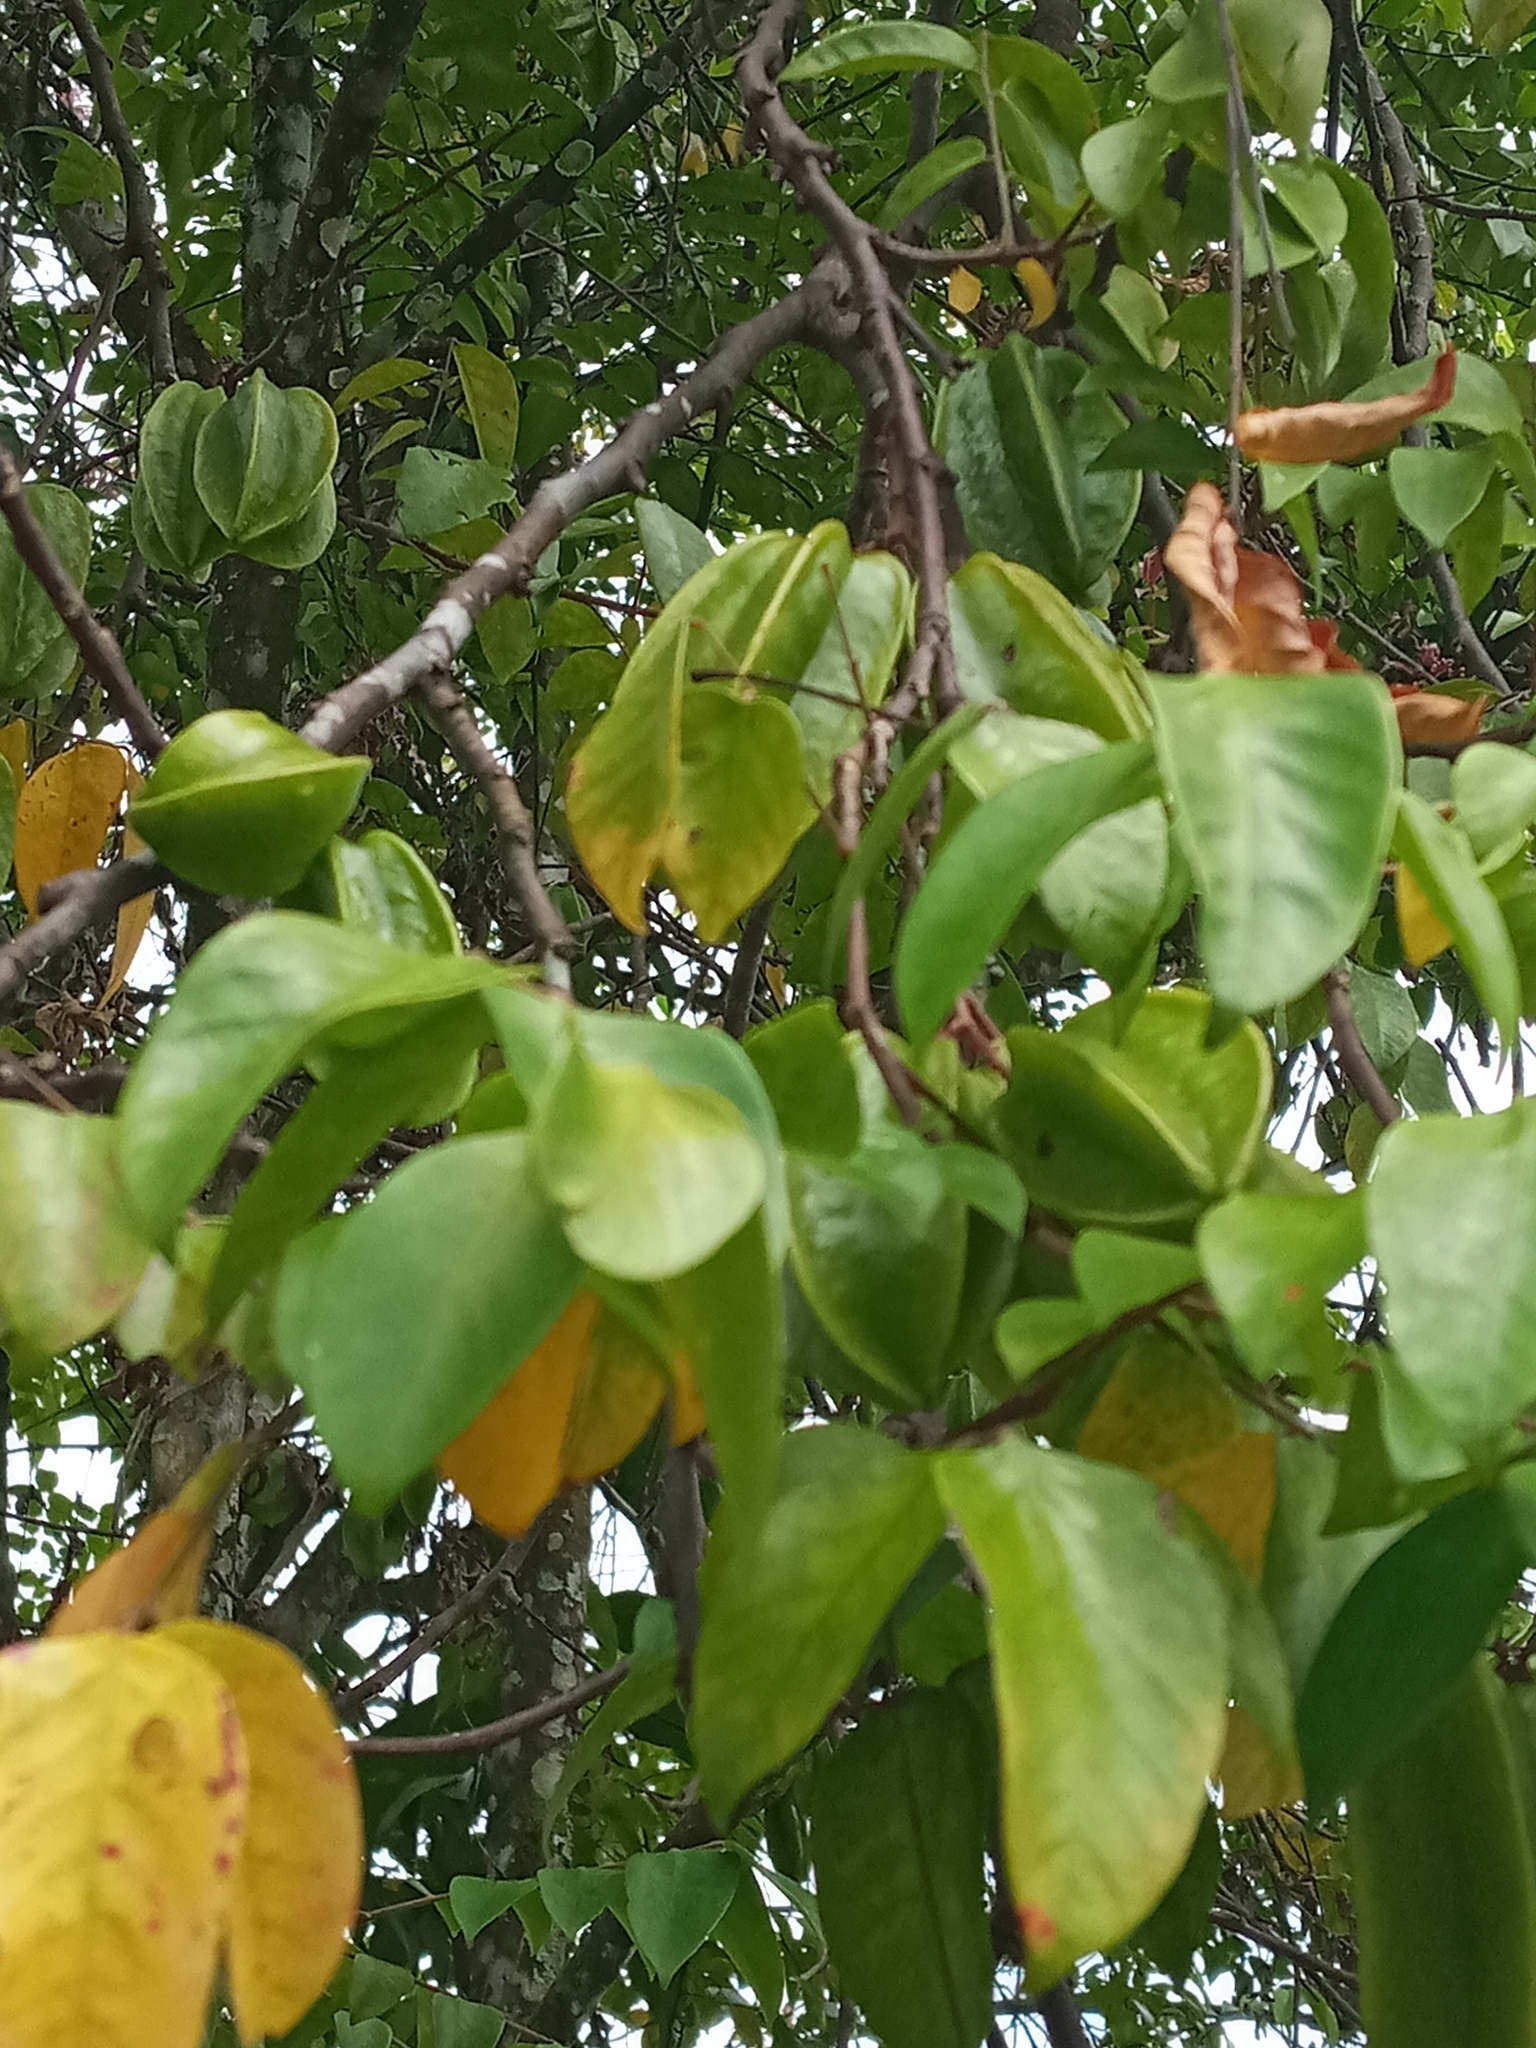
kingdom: Plantae
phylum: Tracheophyta
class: Magnoliopsida
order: Oxalidales
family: Oxalidaceae
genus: Averrhoa
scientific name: Averrhoa carambola
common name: Blimbing
